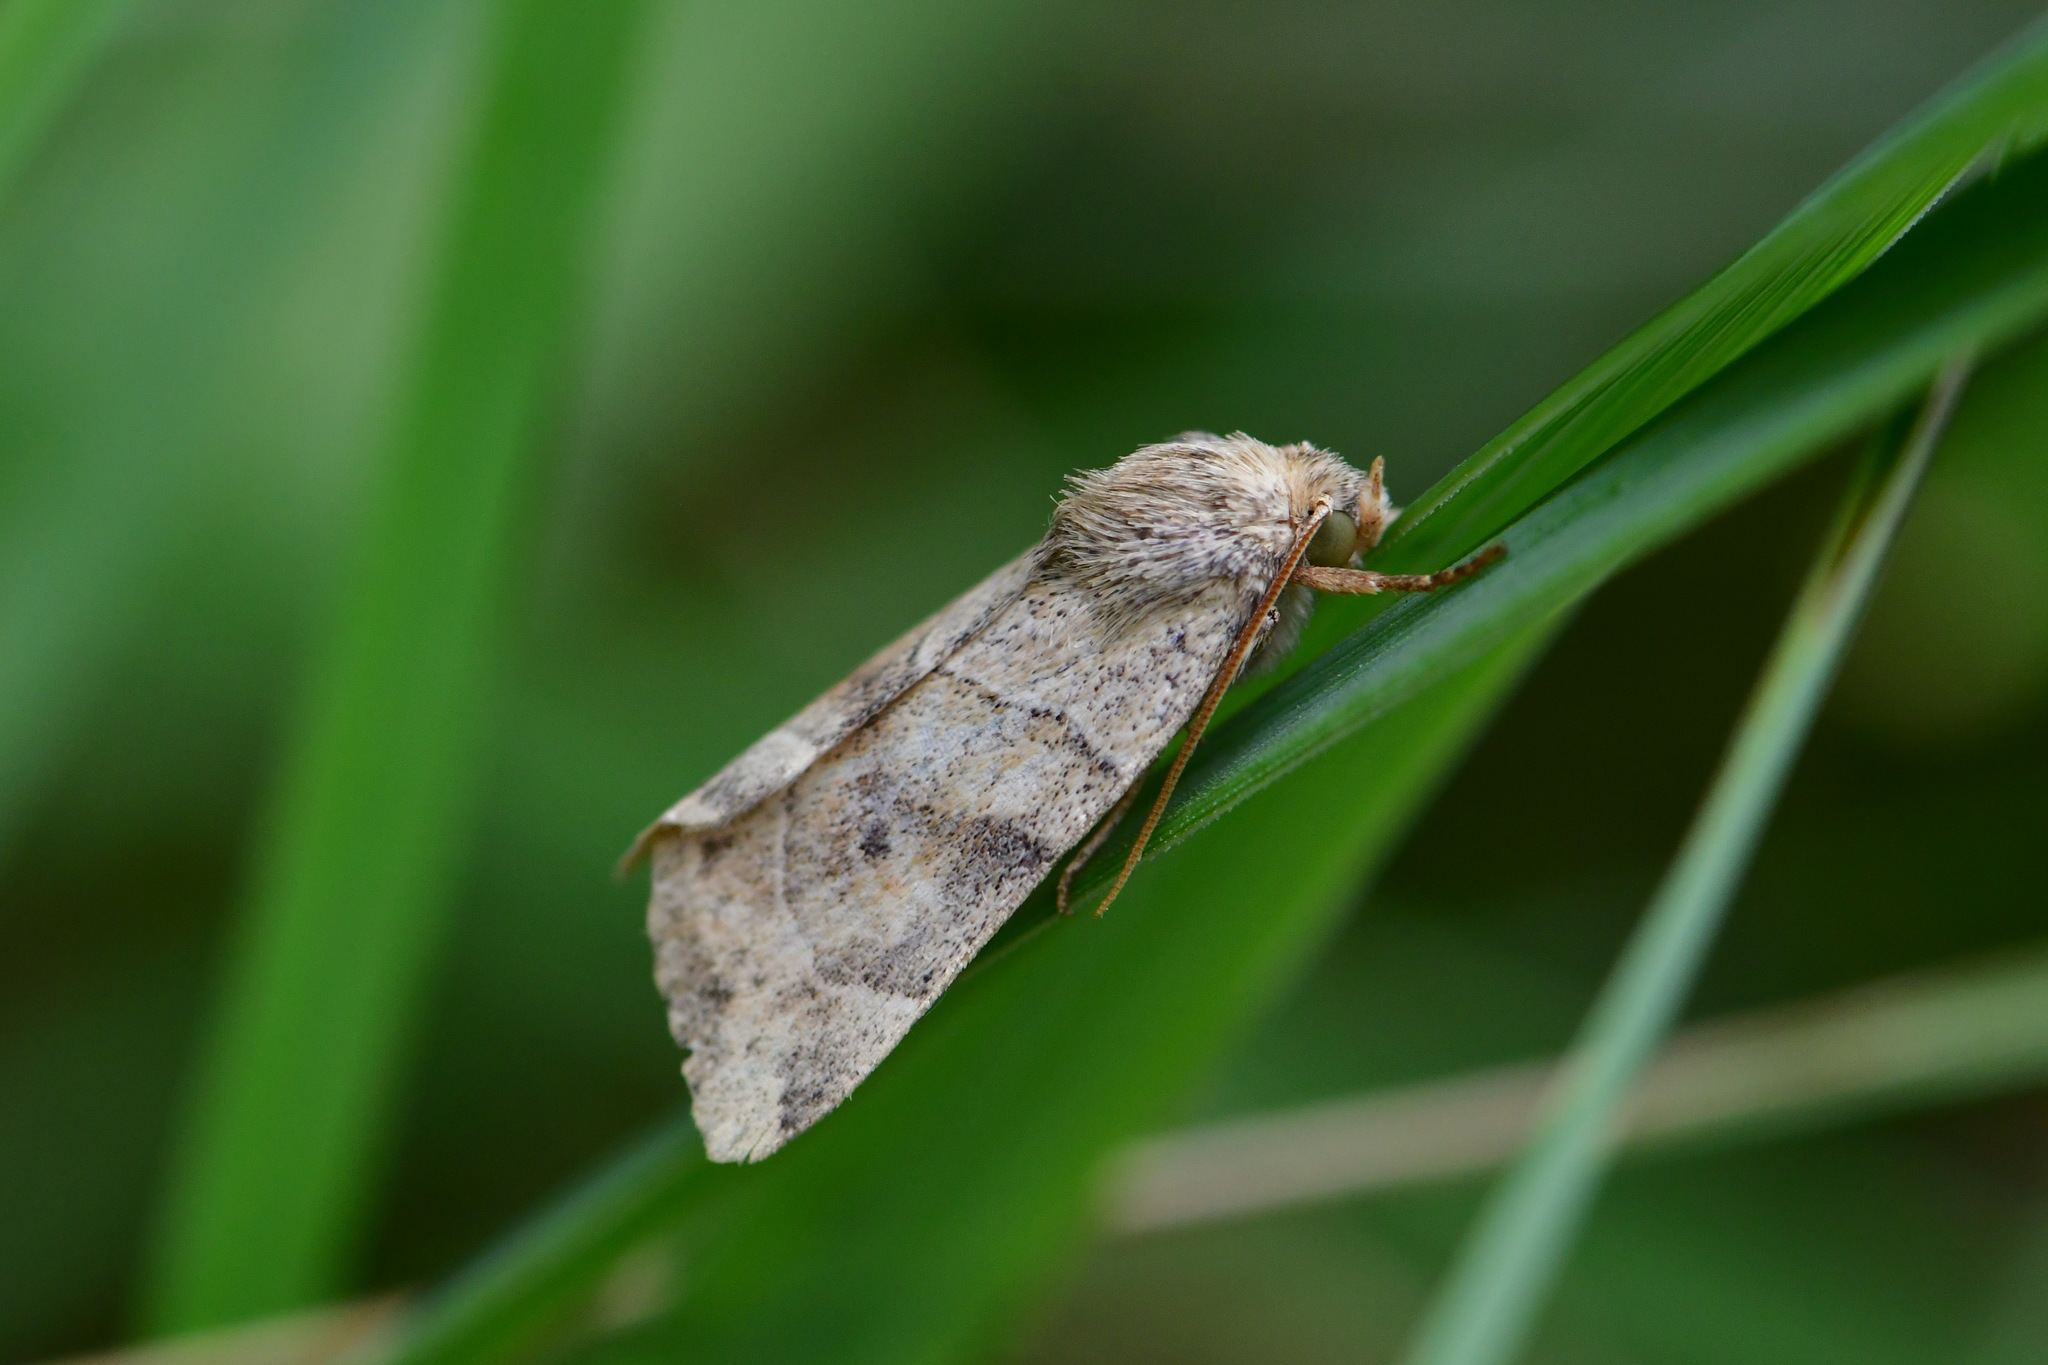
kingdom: Animalia
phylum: Arthropoda
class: Insecta
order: Lepidoptera
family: Noctuidae
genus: Cosmia
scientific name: Cosmia trapezina
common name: Dun-bar
